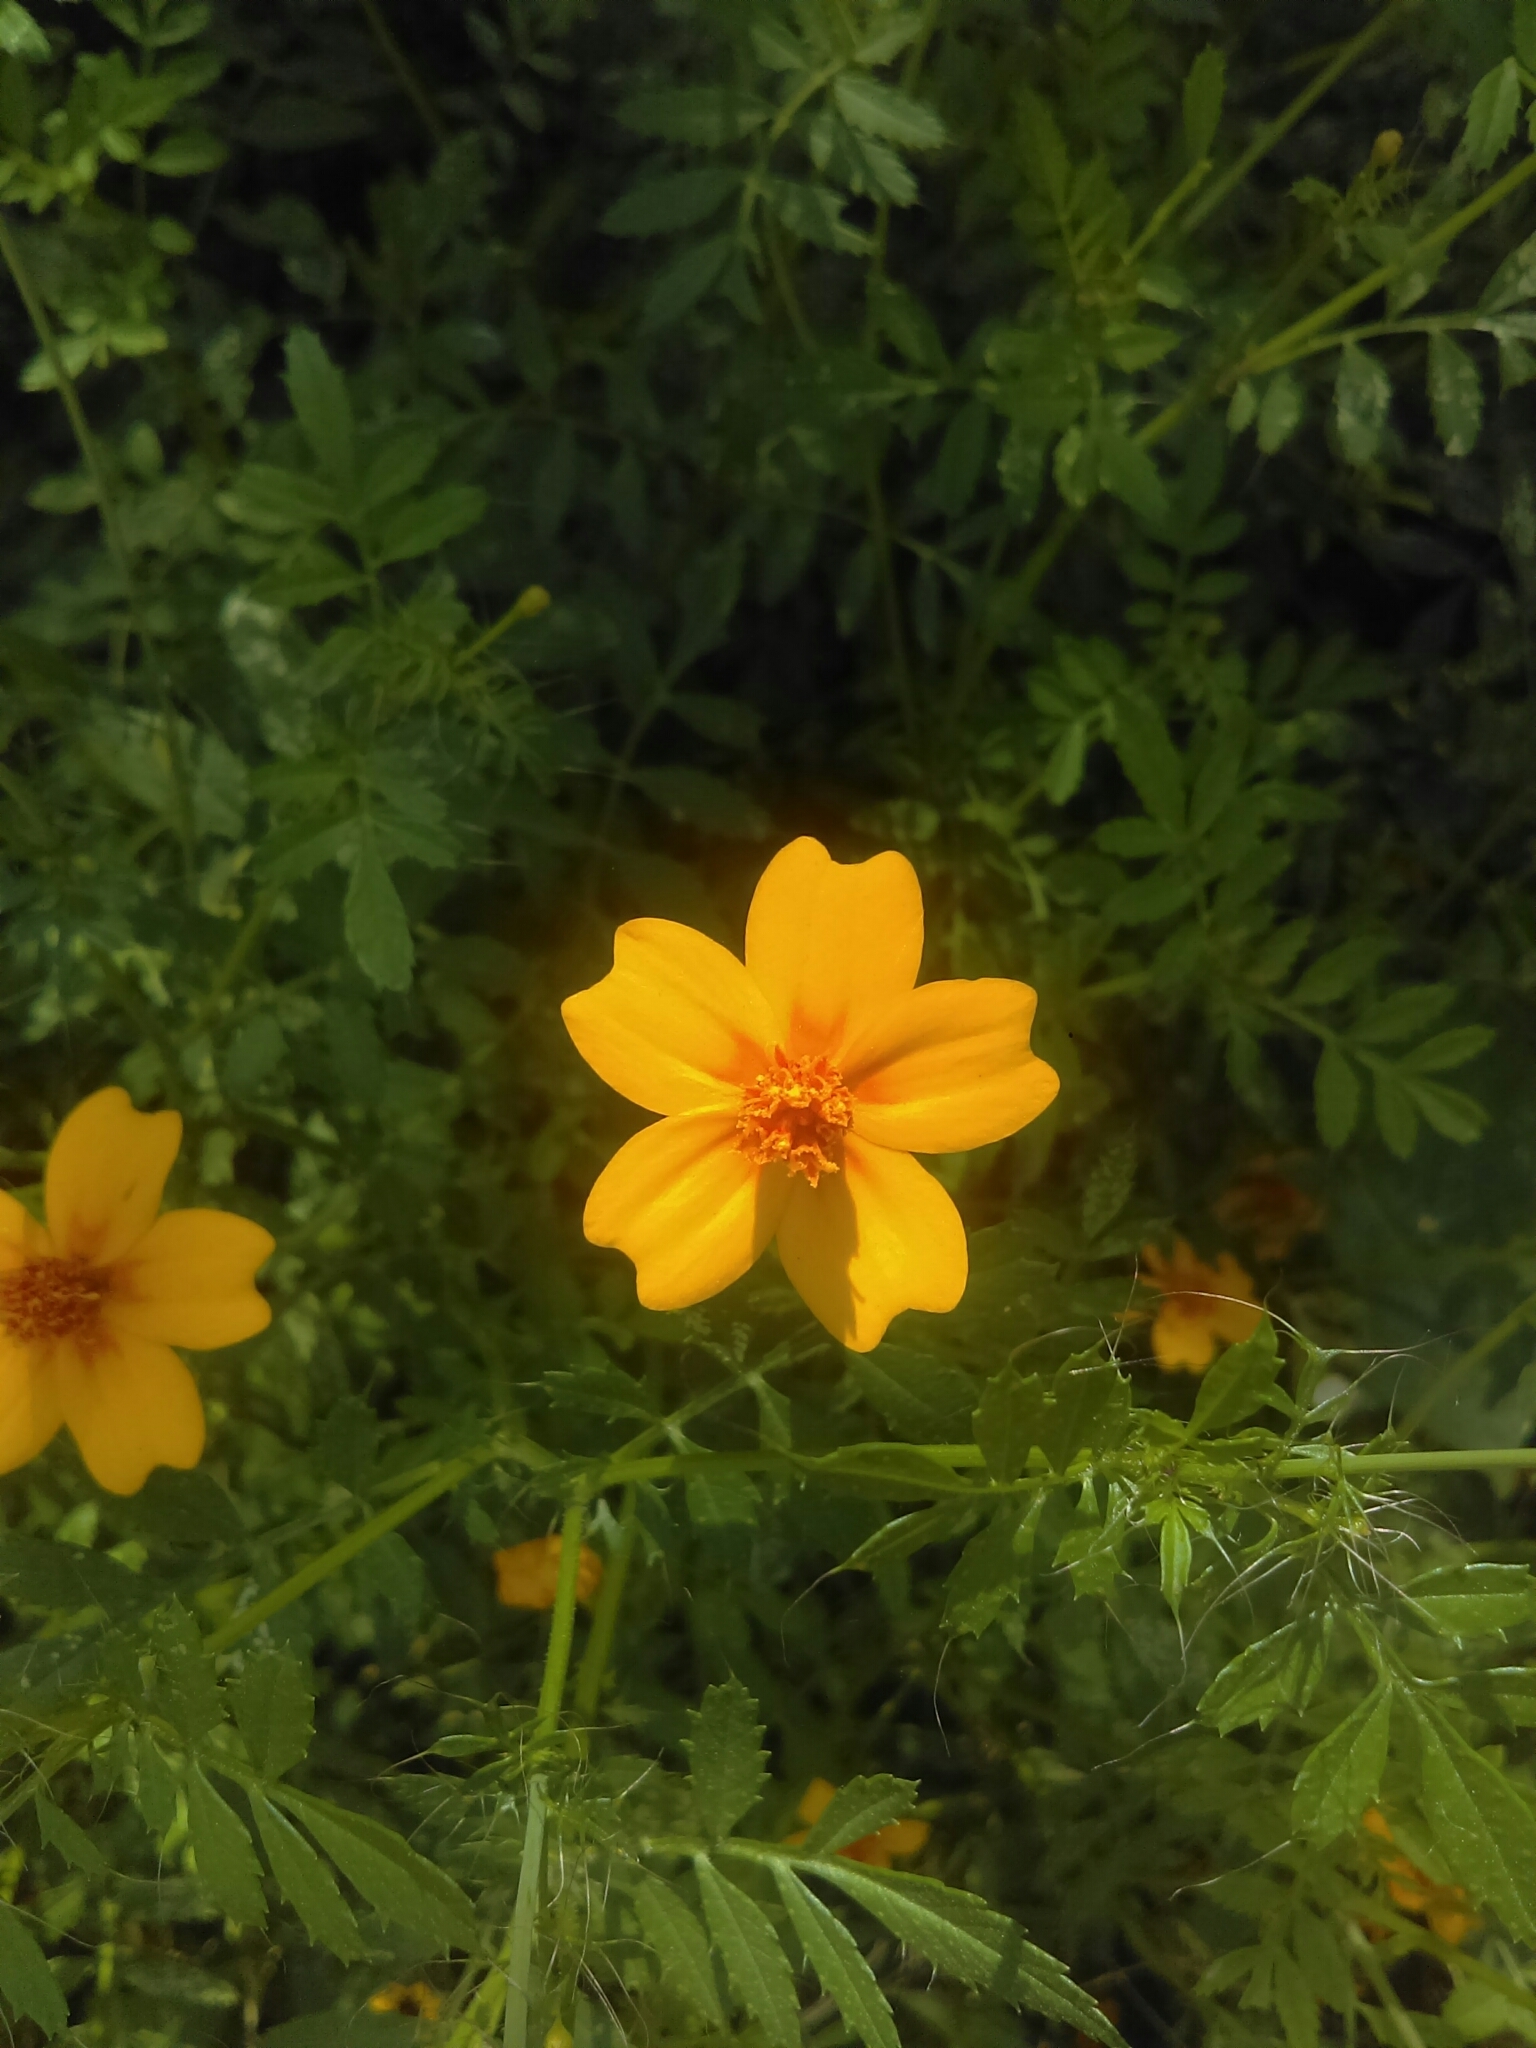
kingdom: Plantae
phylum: Tracheophyta
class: Magnoliopsida
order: Asterales
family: Asteraceae
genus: Tagetes
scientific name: Tagetes lunulata
